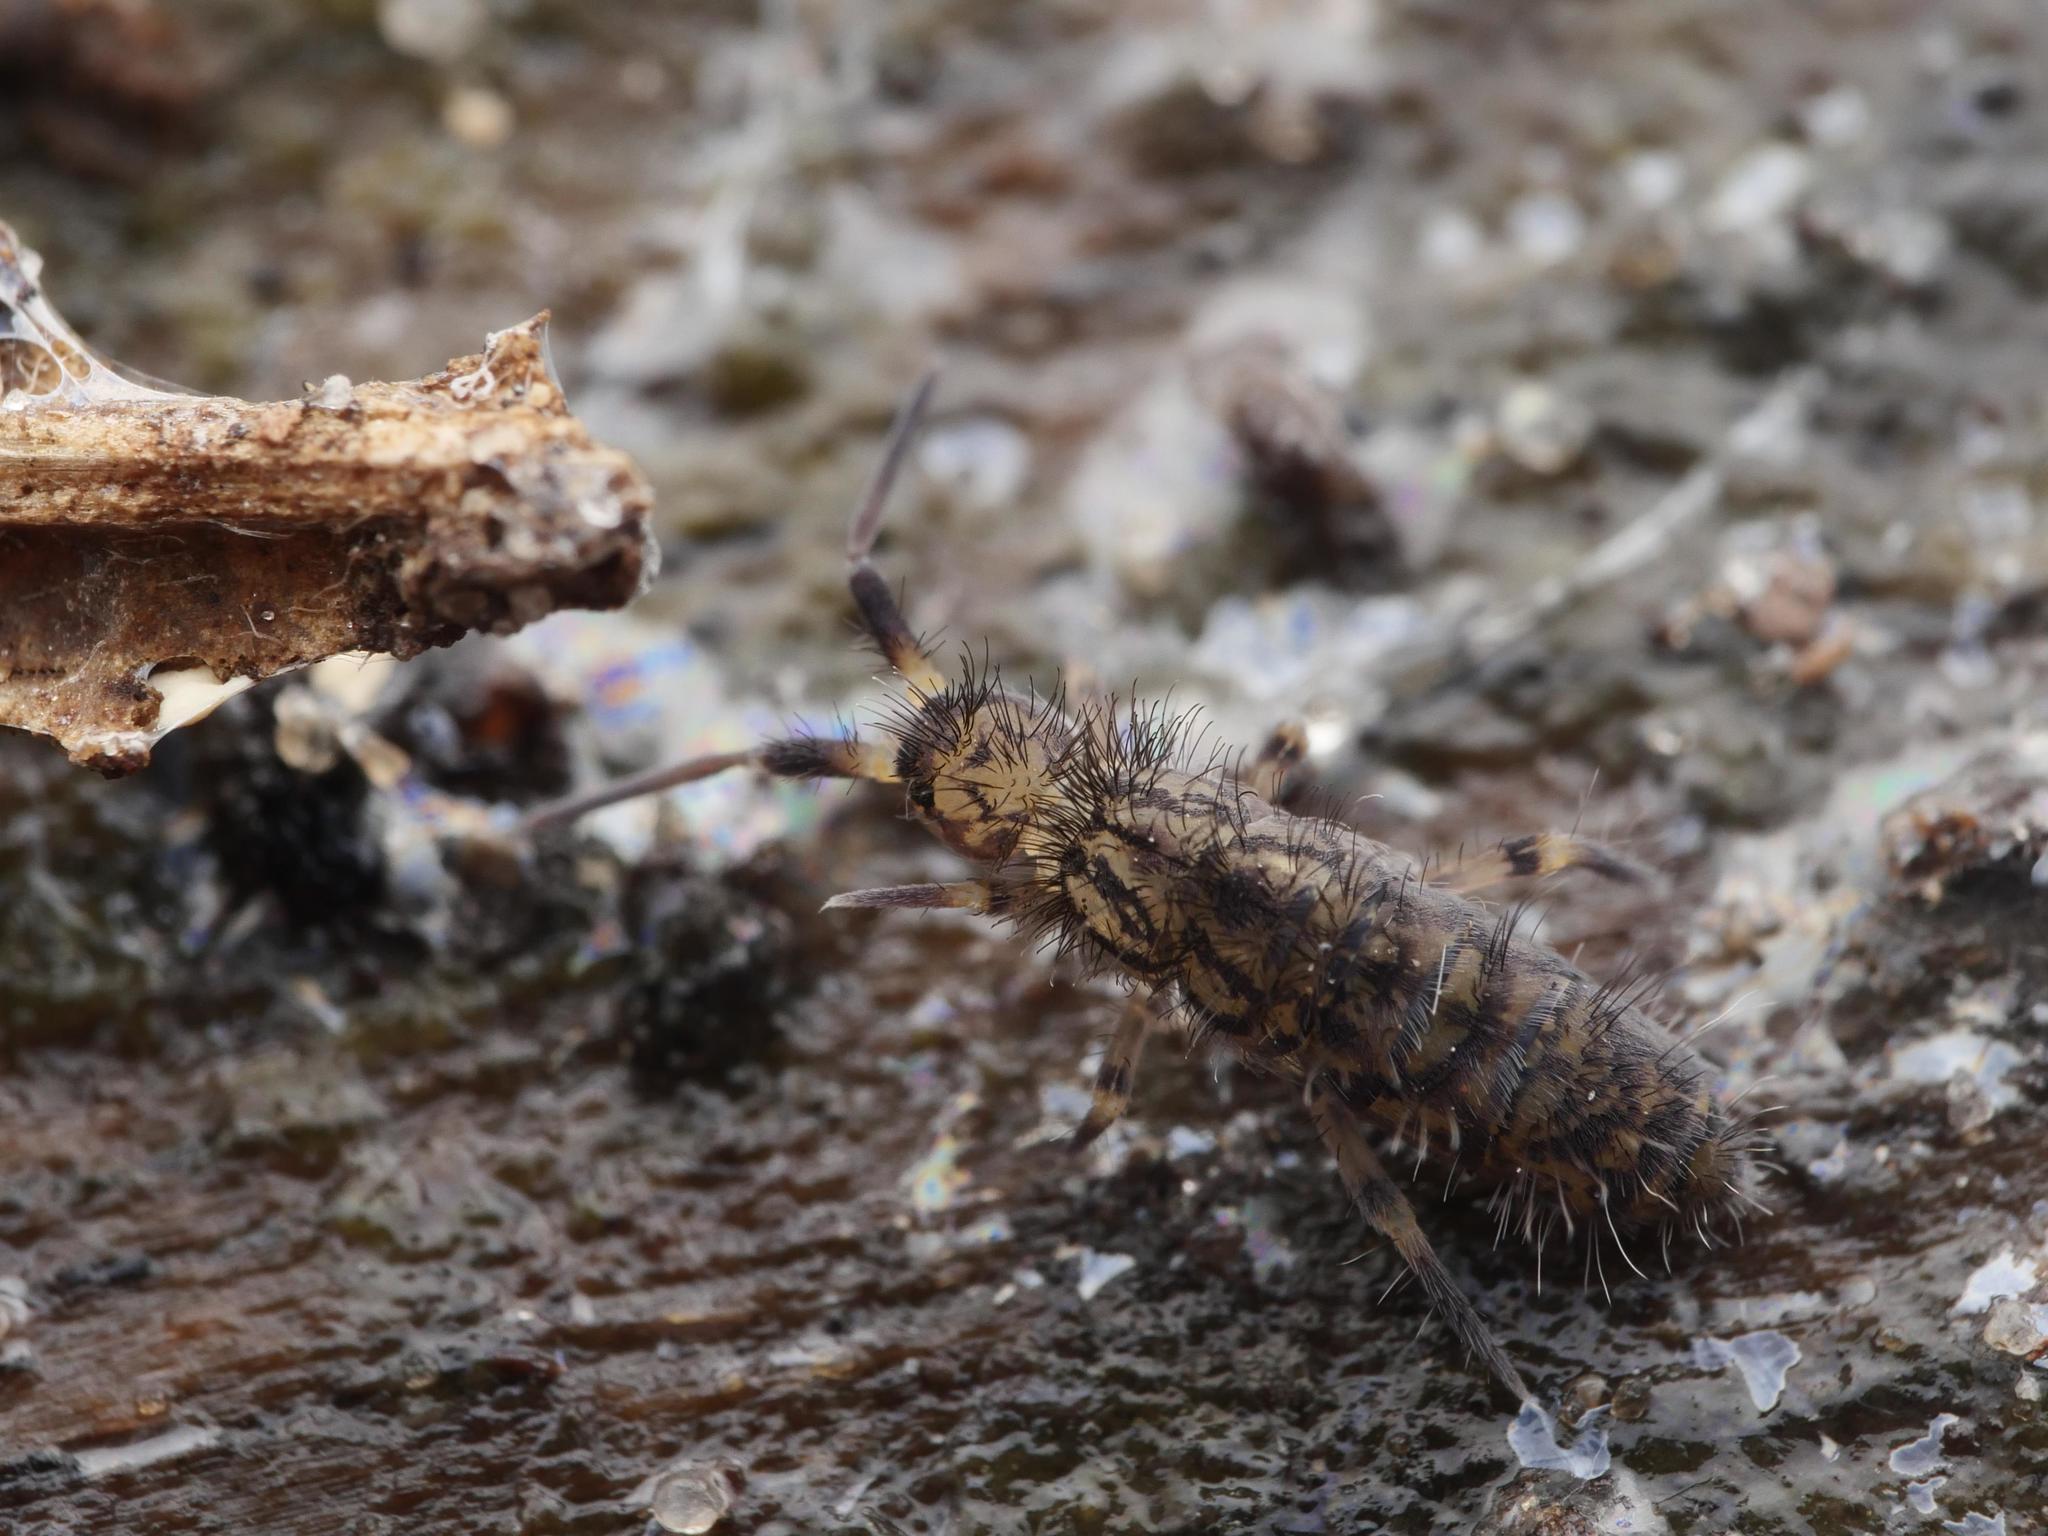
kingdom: Animalia
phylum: Arthropoda
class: Collembola
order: Entomobryomorpha
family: Orchesellidae
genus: Orchesella
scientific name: Orchesella villosa
